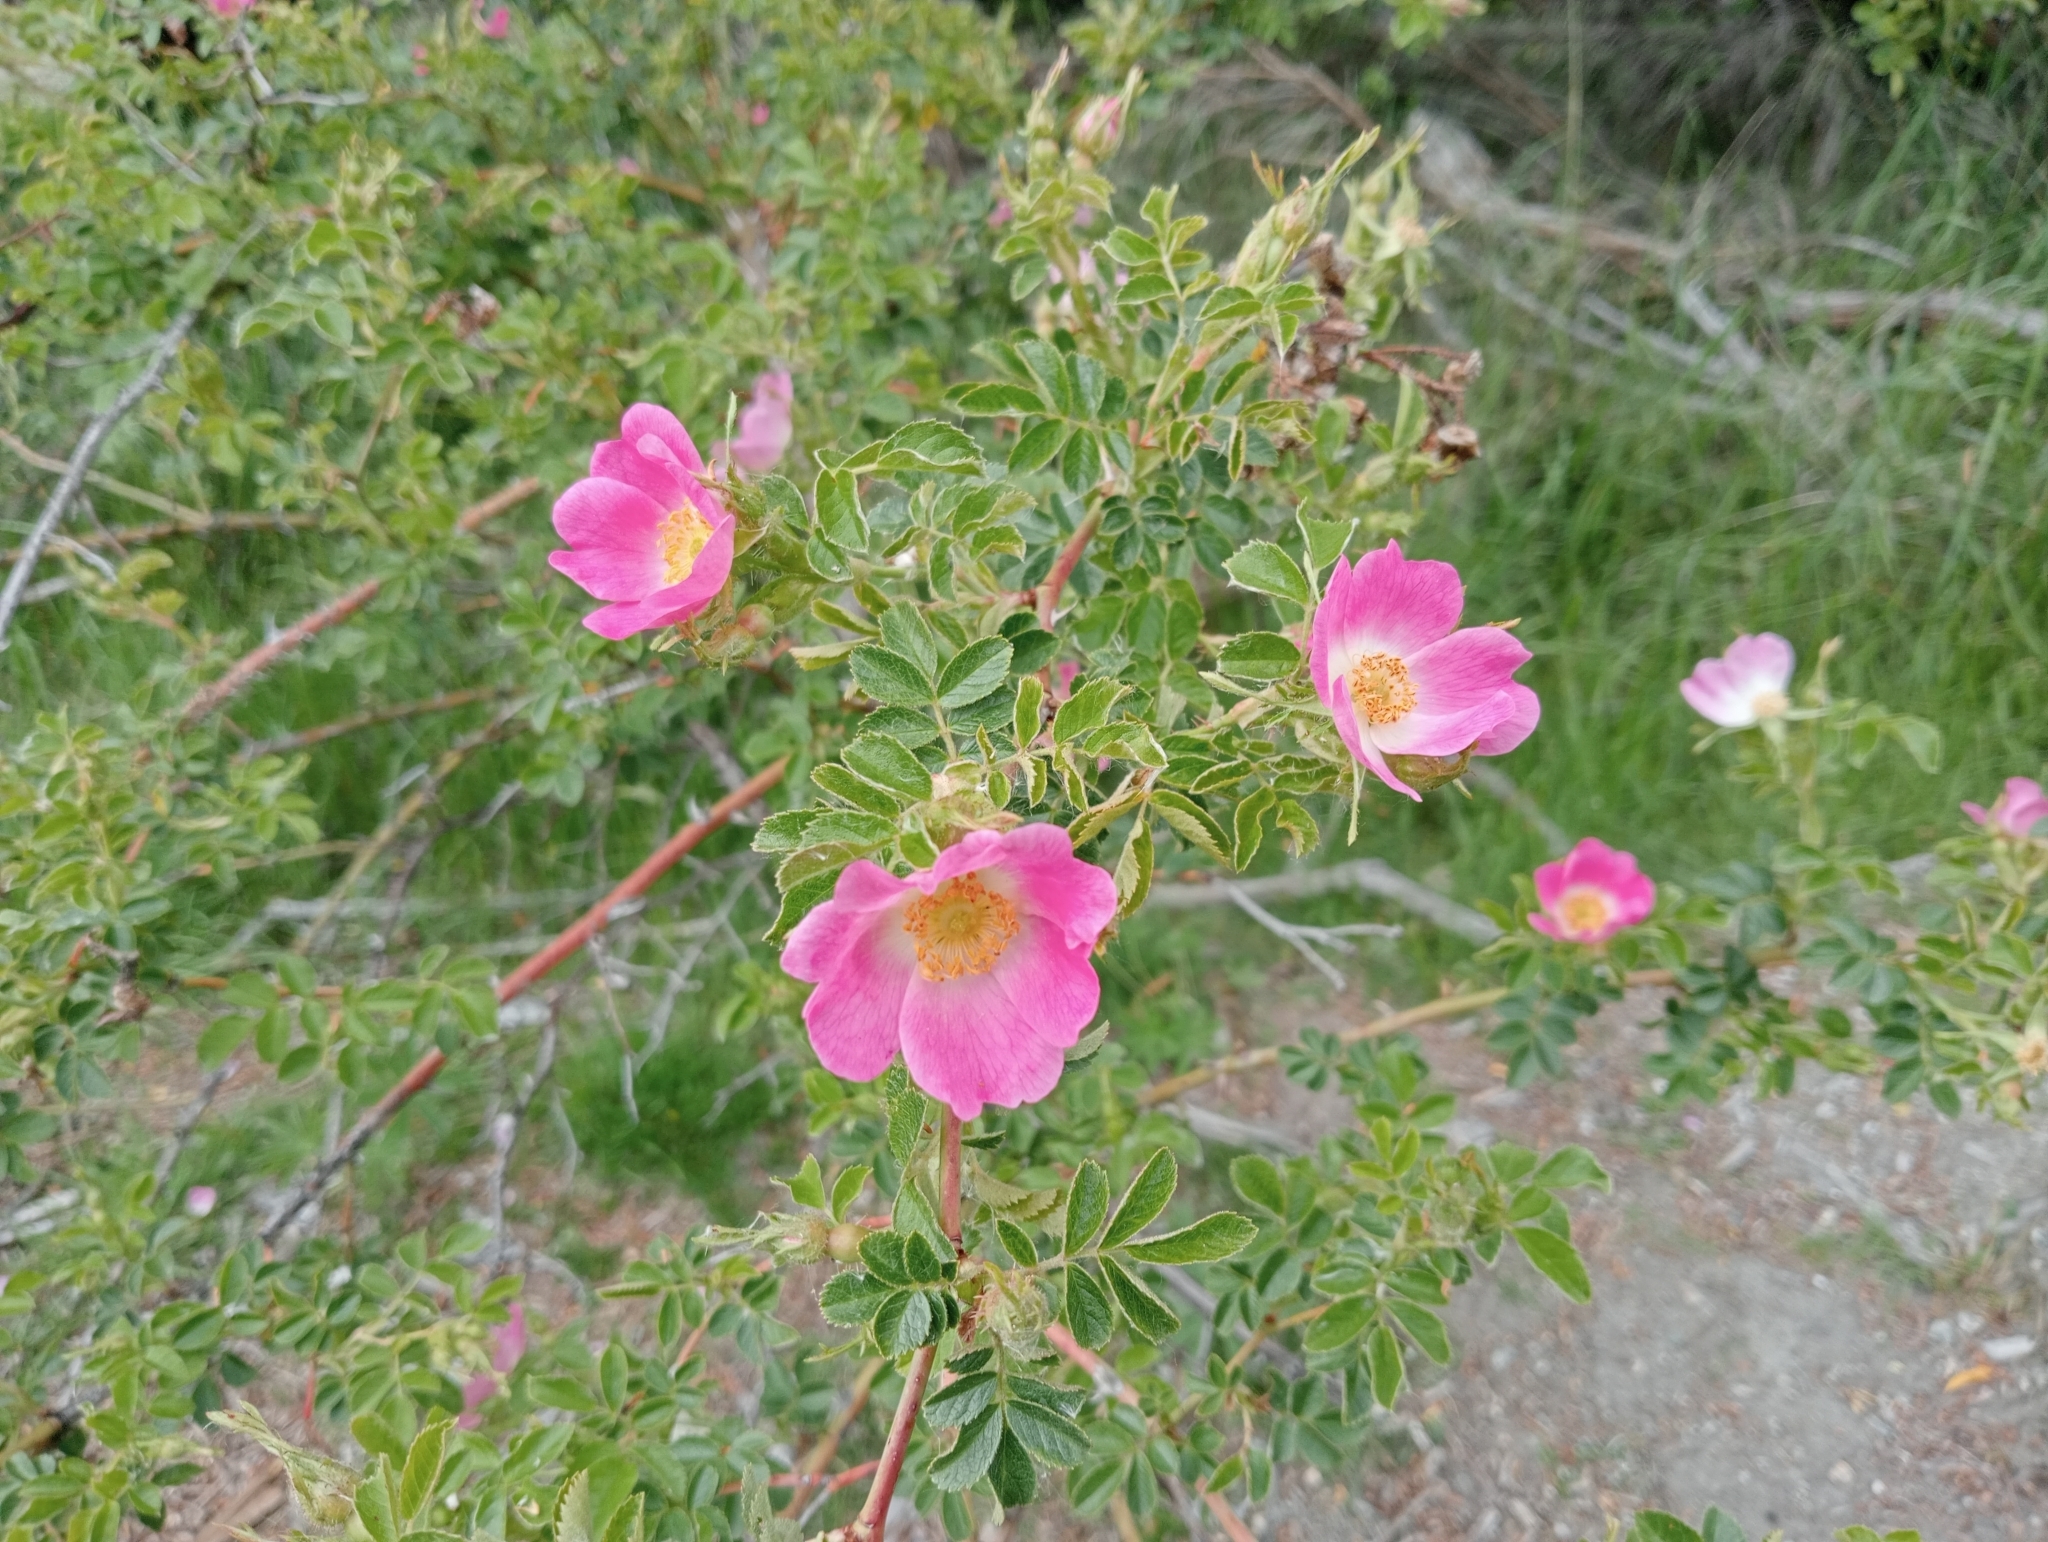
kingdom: Plantae
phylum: Tracheophyta
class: Magnoliopsida
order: Rosales
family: Rosaceae
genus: Rosa
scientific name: Rosa rubiginosa
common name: Sweet-briar
